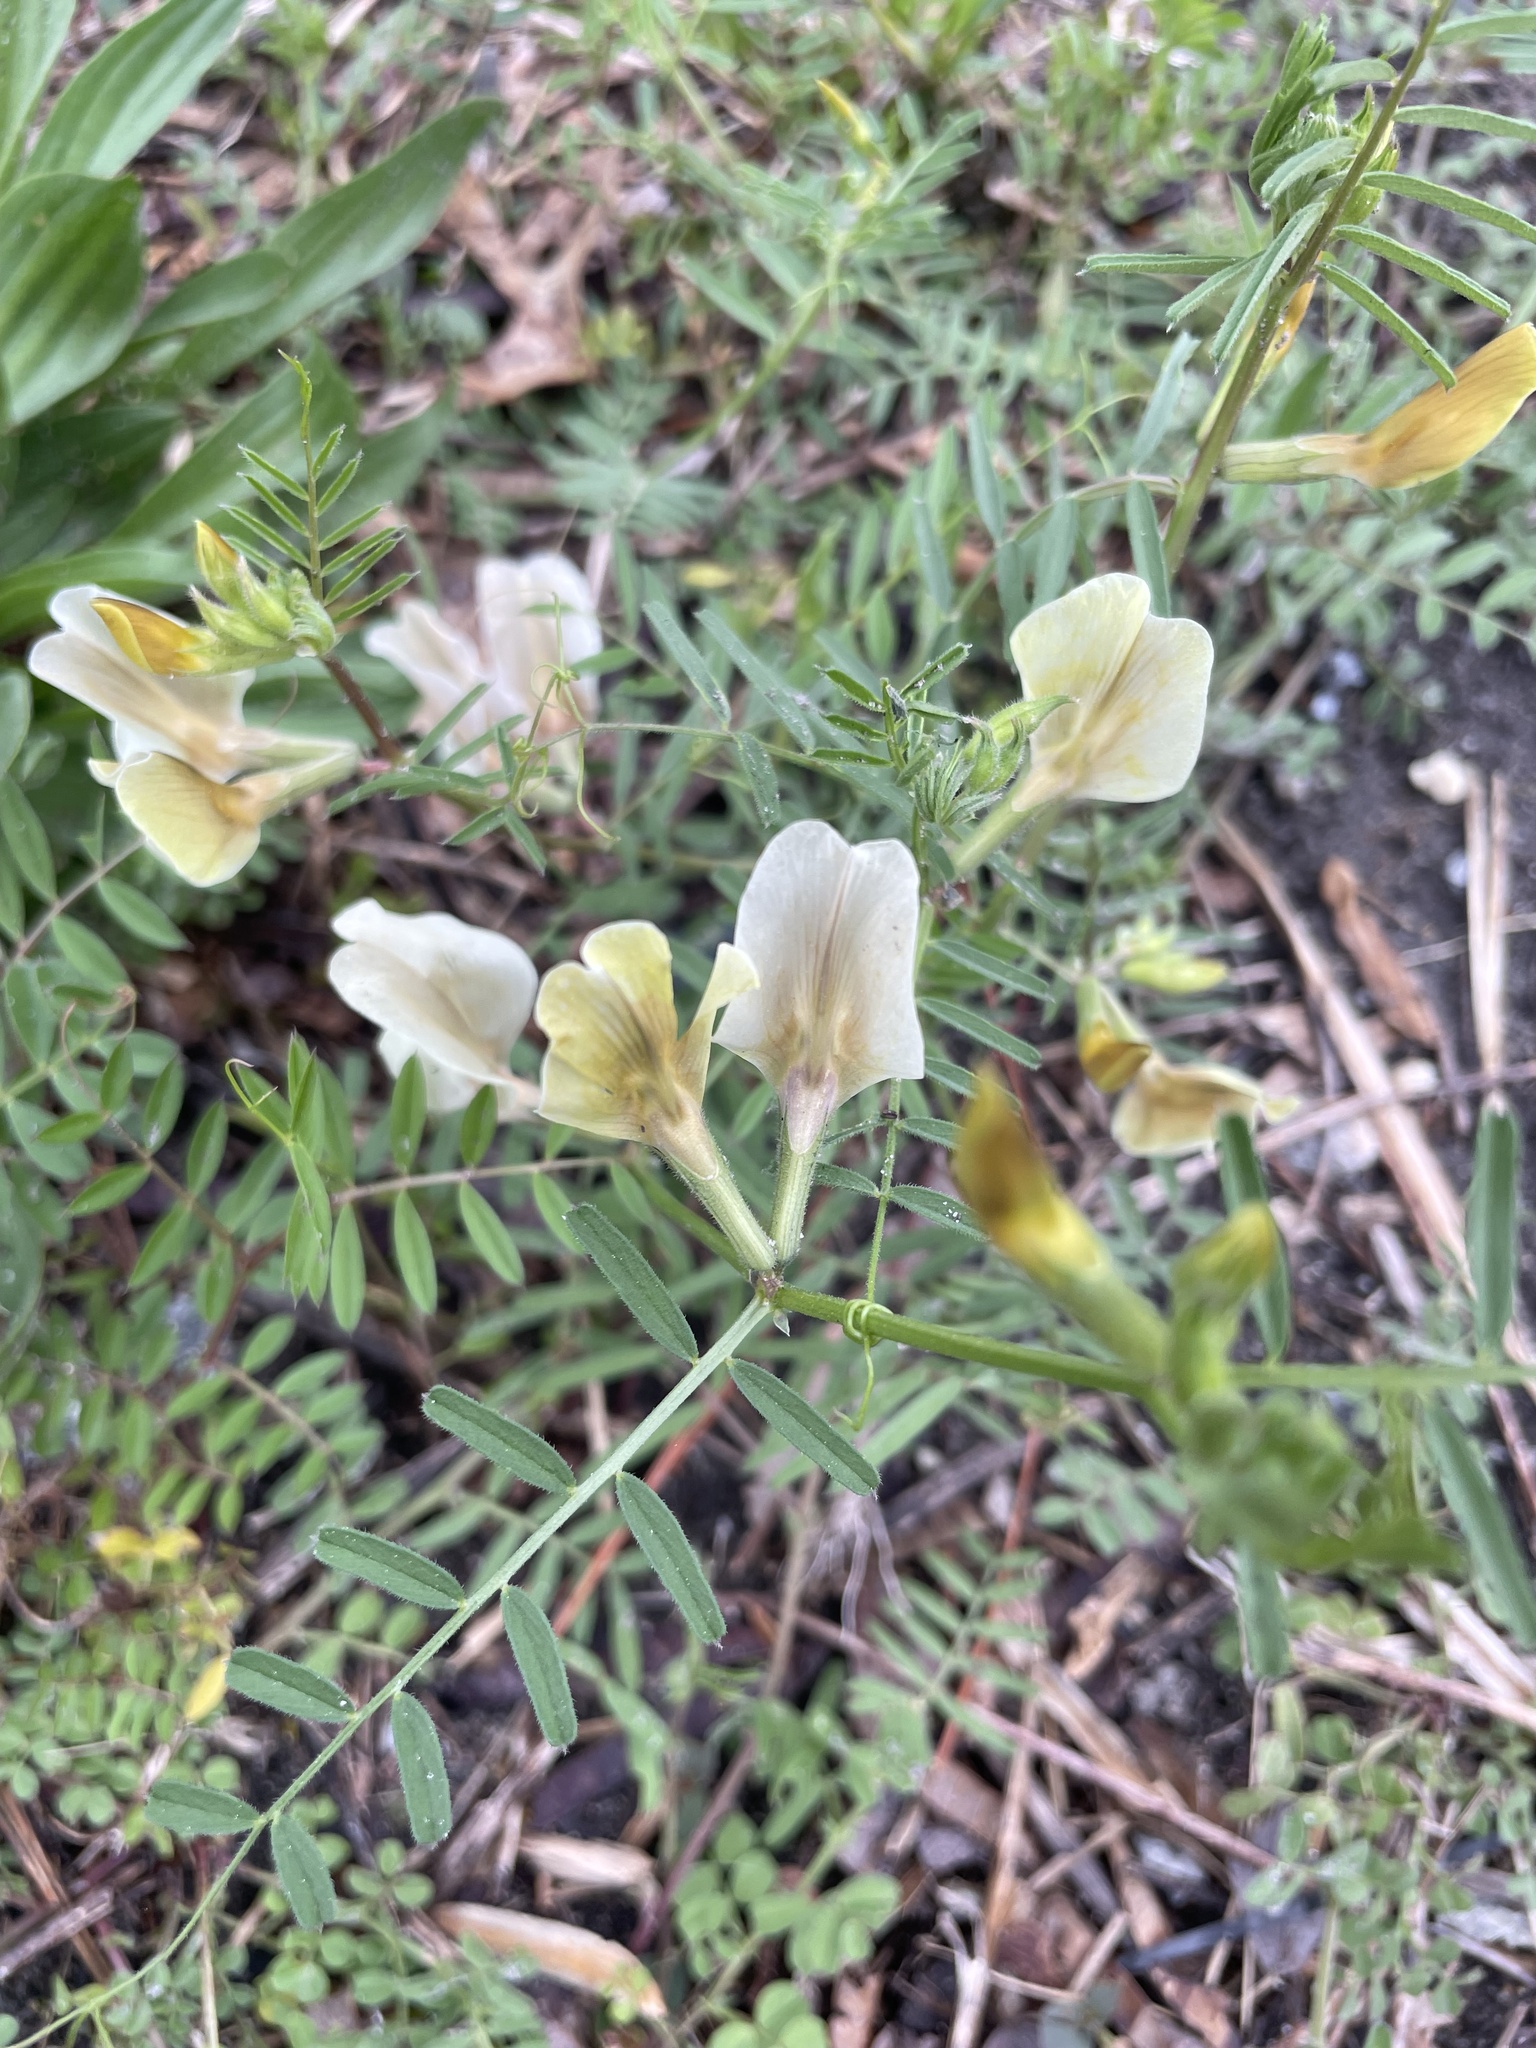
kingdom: Plantae
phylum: Tracheophyta
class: Magnoliopsida
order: Fabales
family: Fabaceae
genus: Vicia
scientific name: Vicia grandiflora
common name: Large yellow vetch
